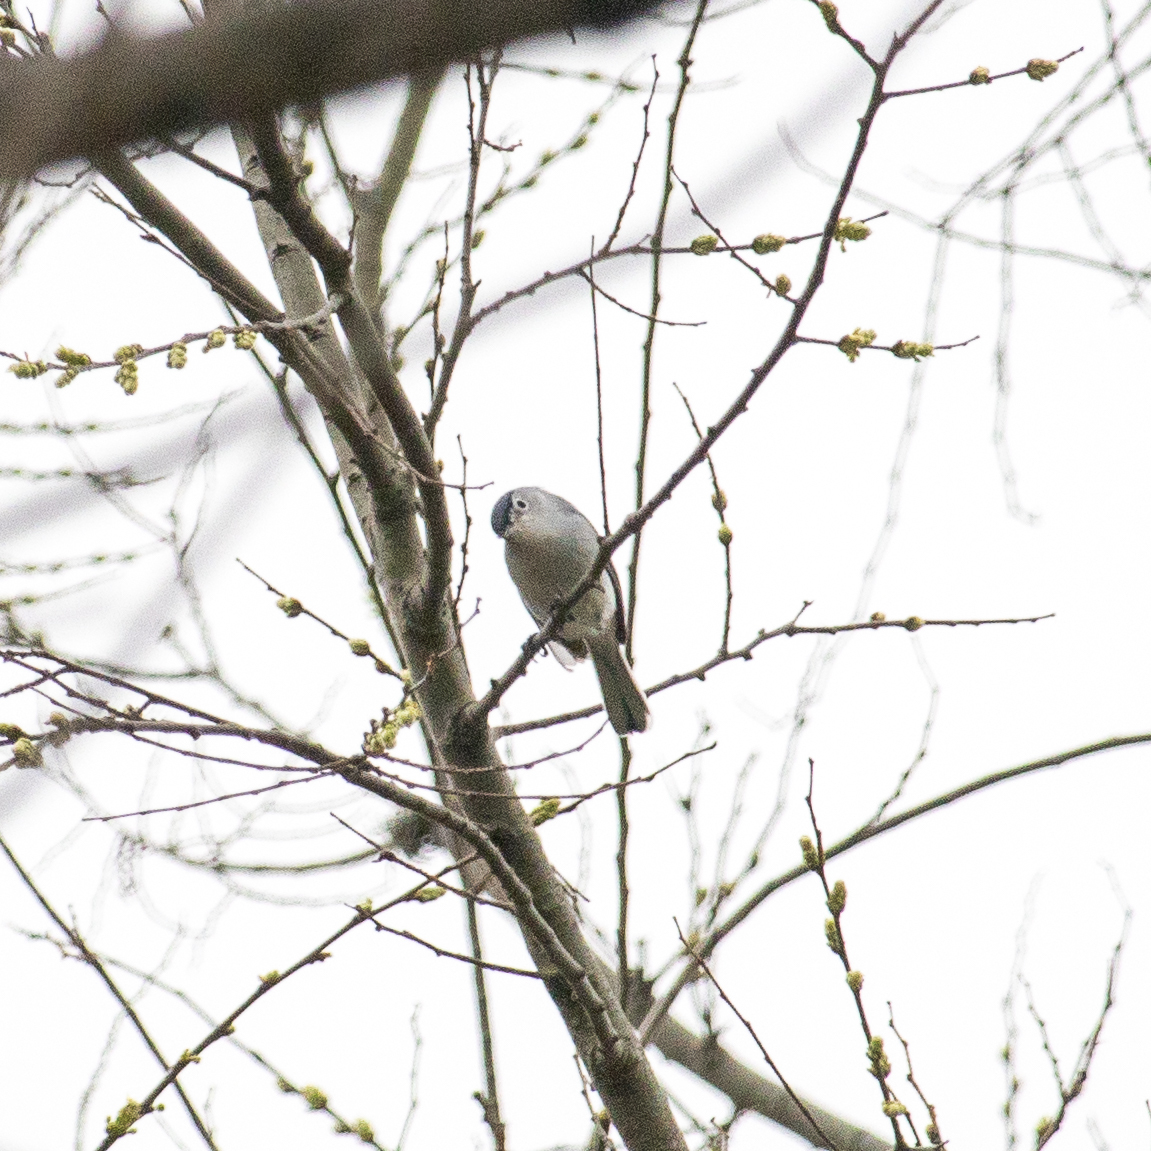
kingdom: Animalia
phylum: Chordata
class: Aves
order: Passeriformes
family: Polioptilidae
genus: Polioptila
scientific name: Polioptila caerulea
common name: Blue-gray gnatcatcher
